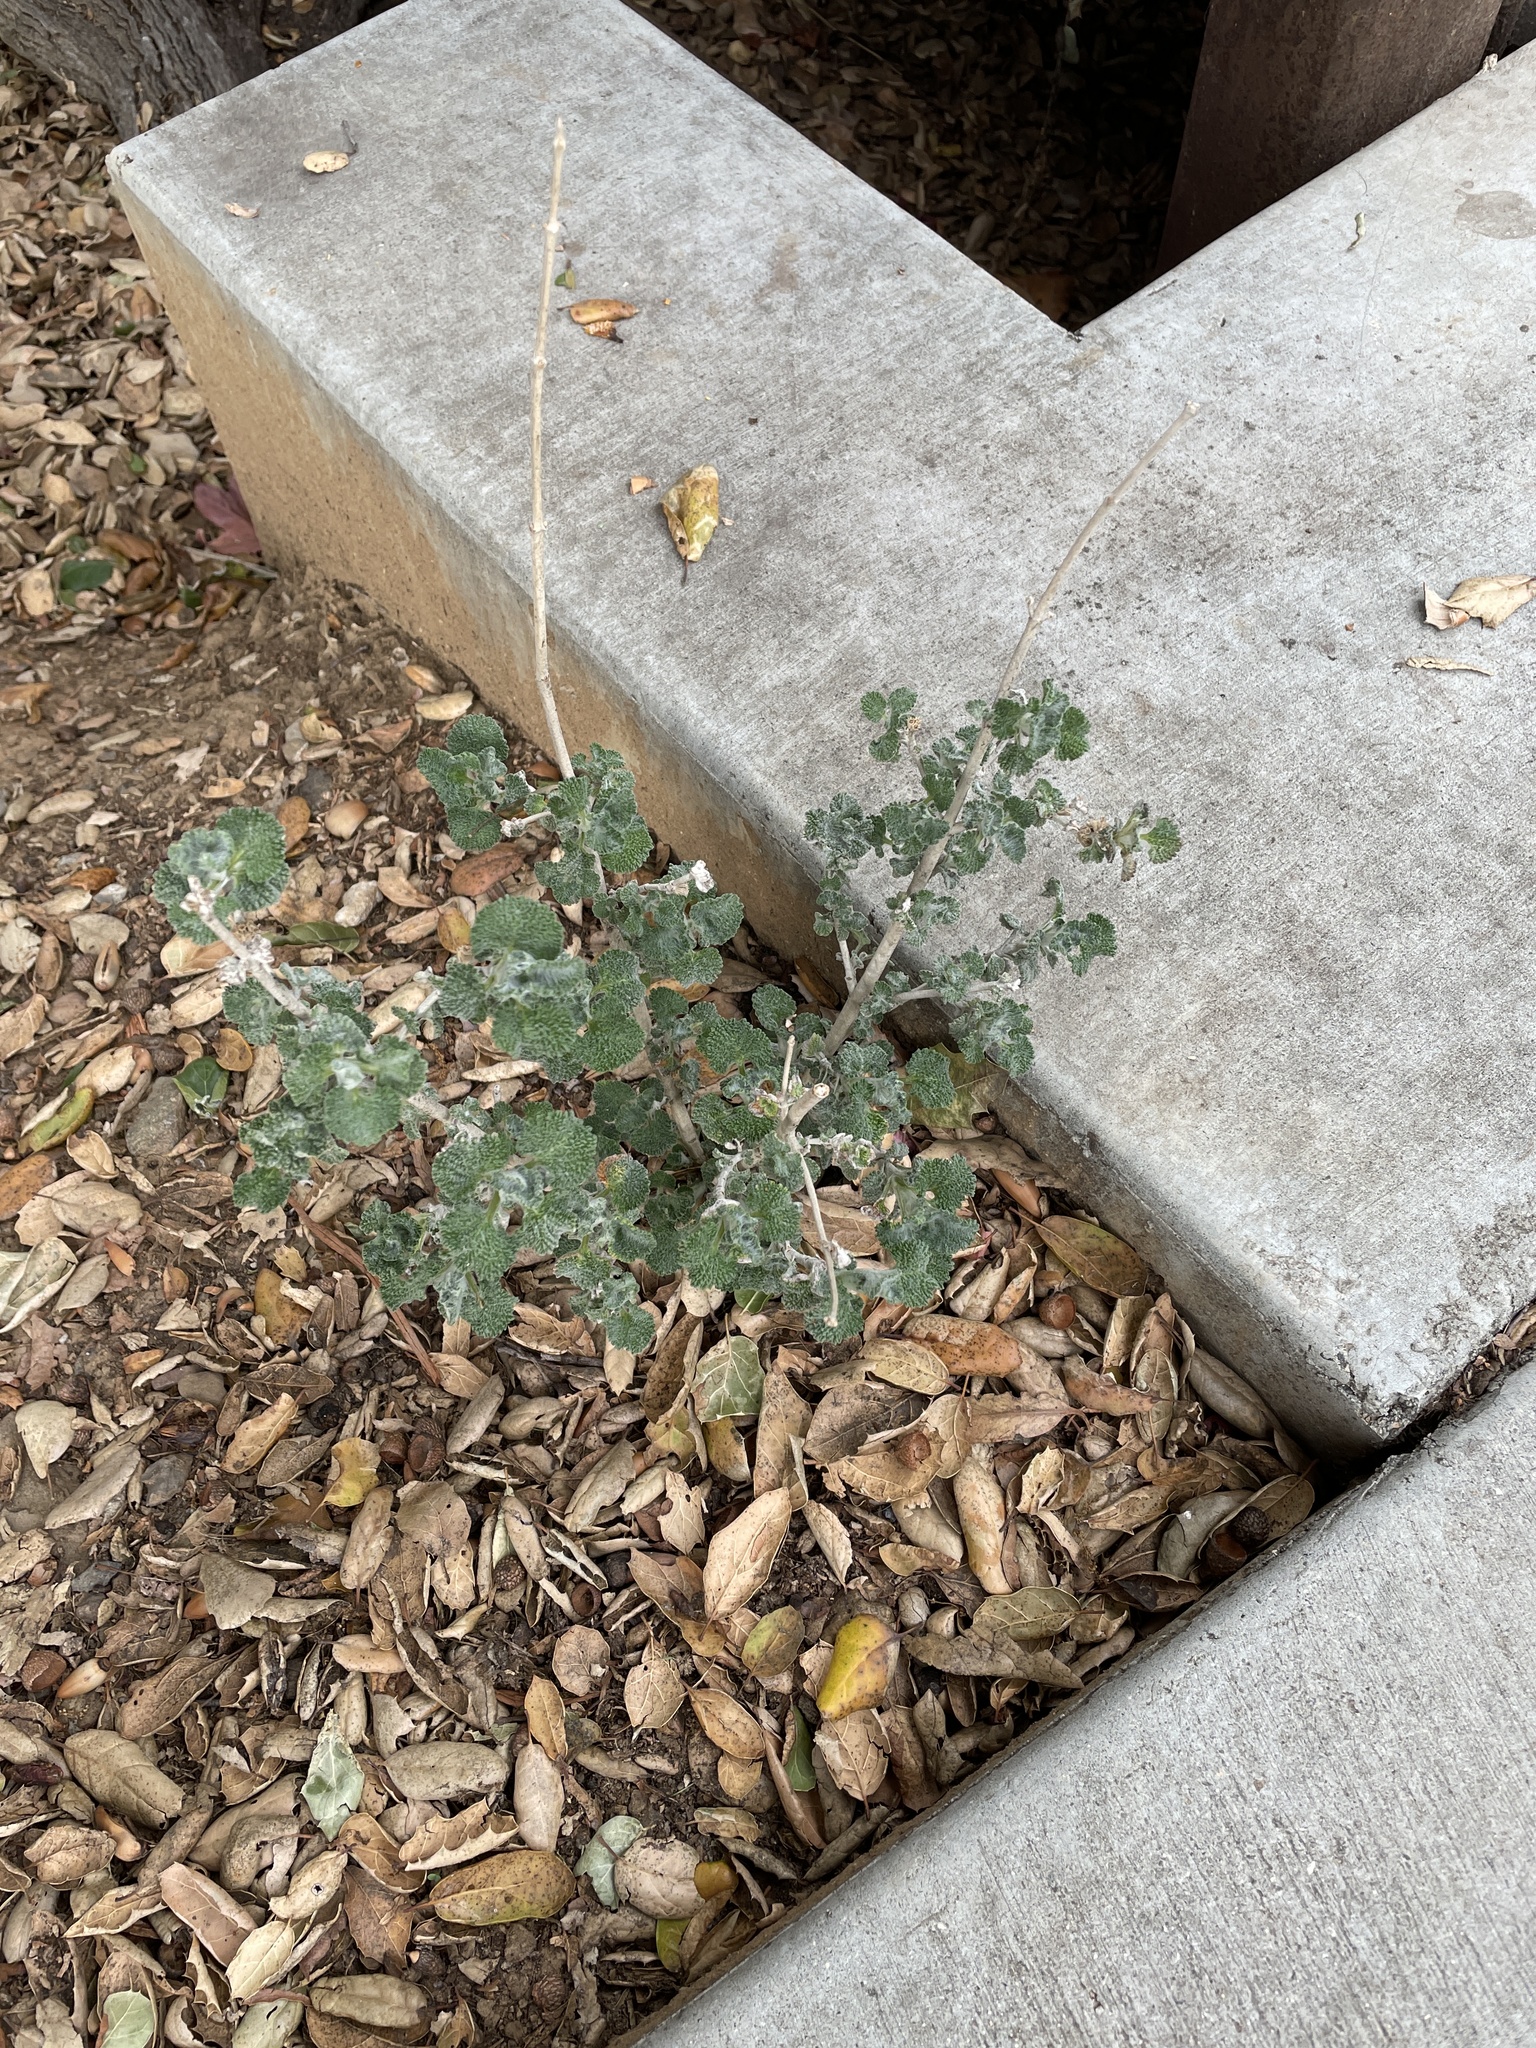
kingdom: Plantae
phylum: Tracheophyta
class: Magnoliopsida
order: Lamiales
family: Lamiaceae
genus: Marrubium
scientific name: Marrubium vulgare
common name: Horehound
